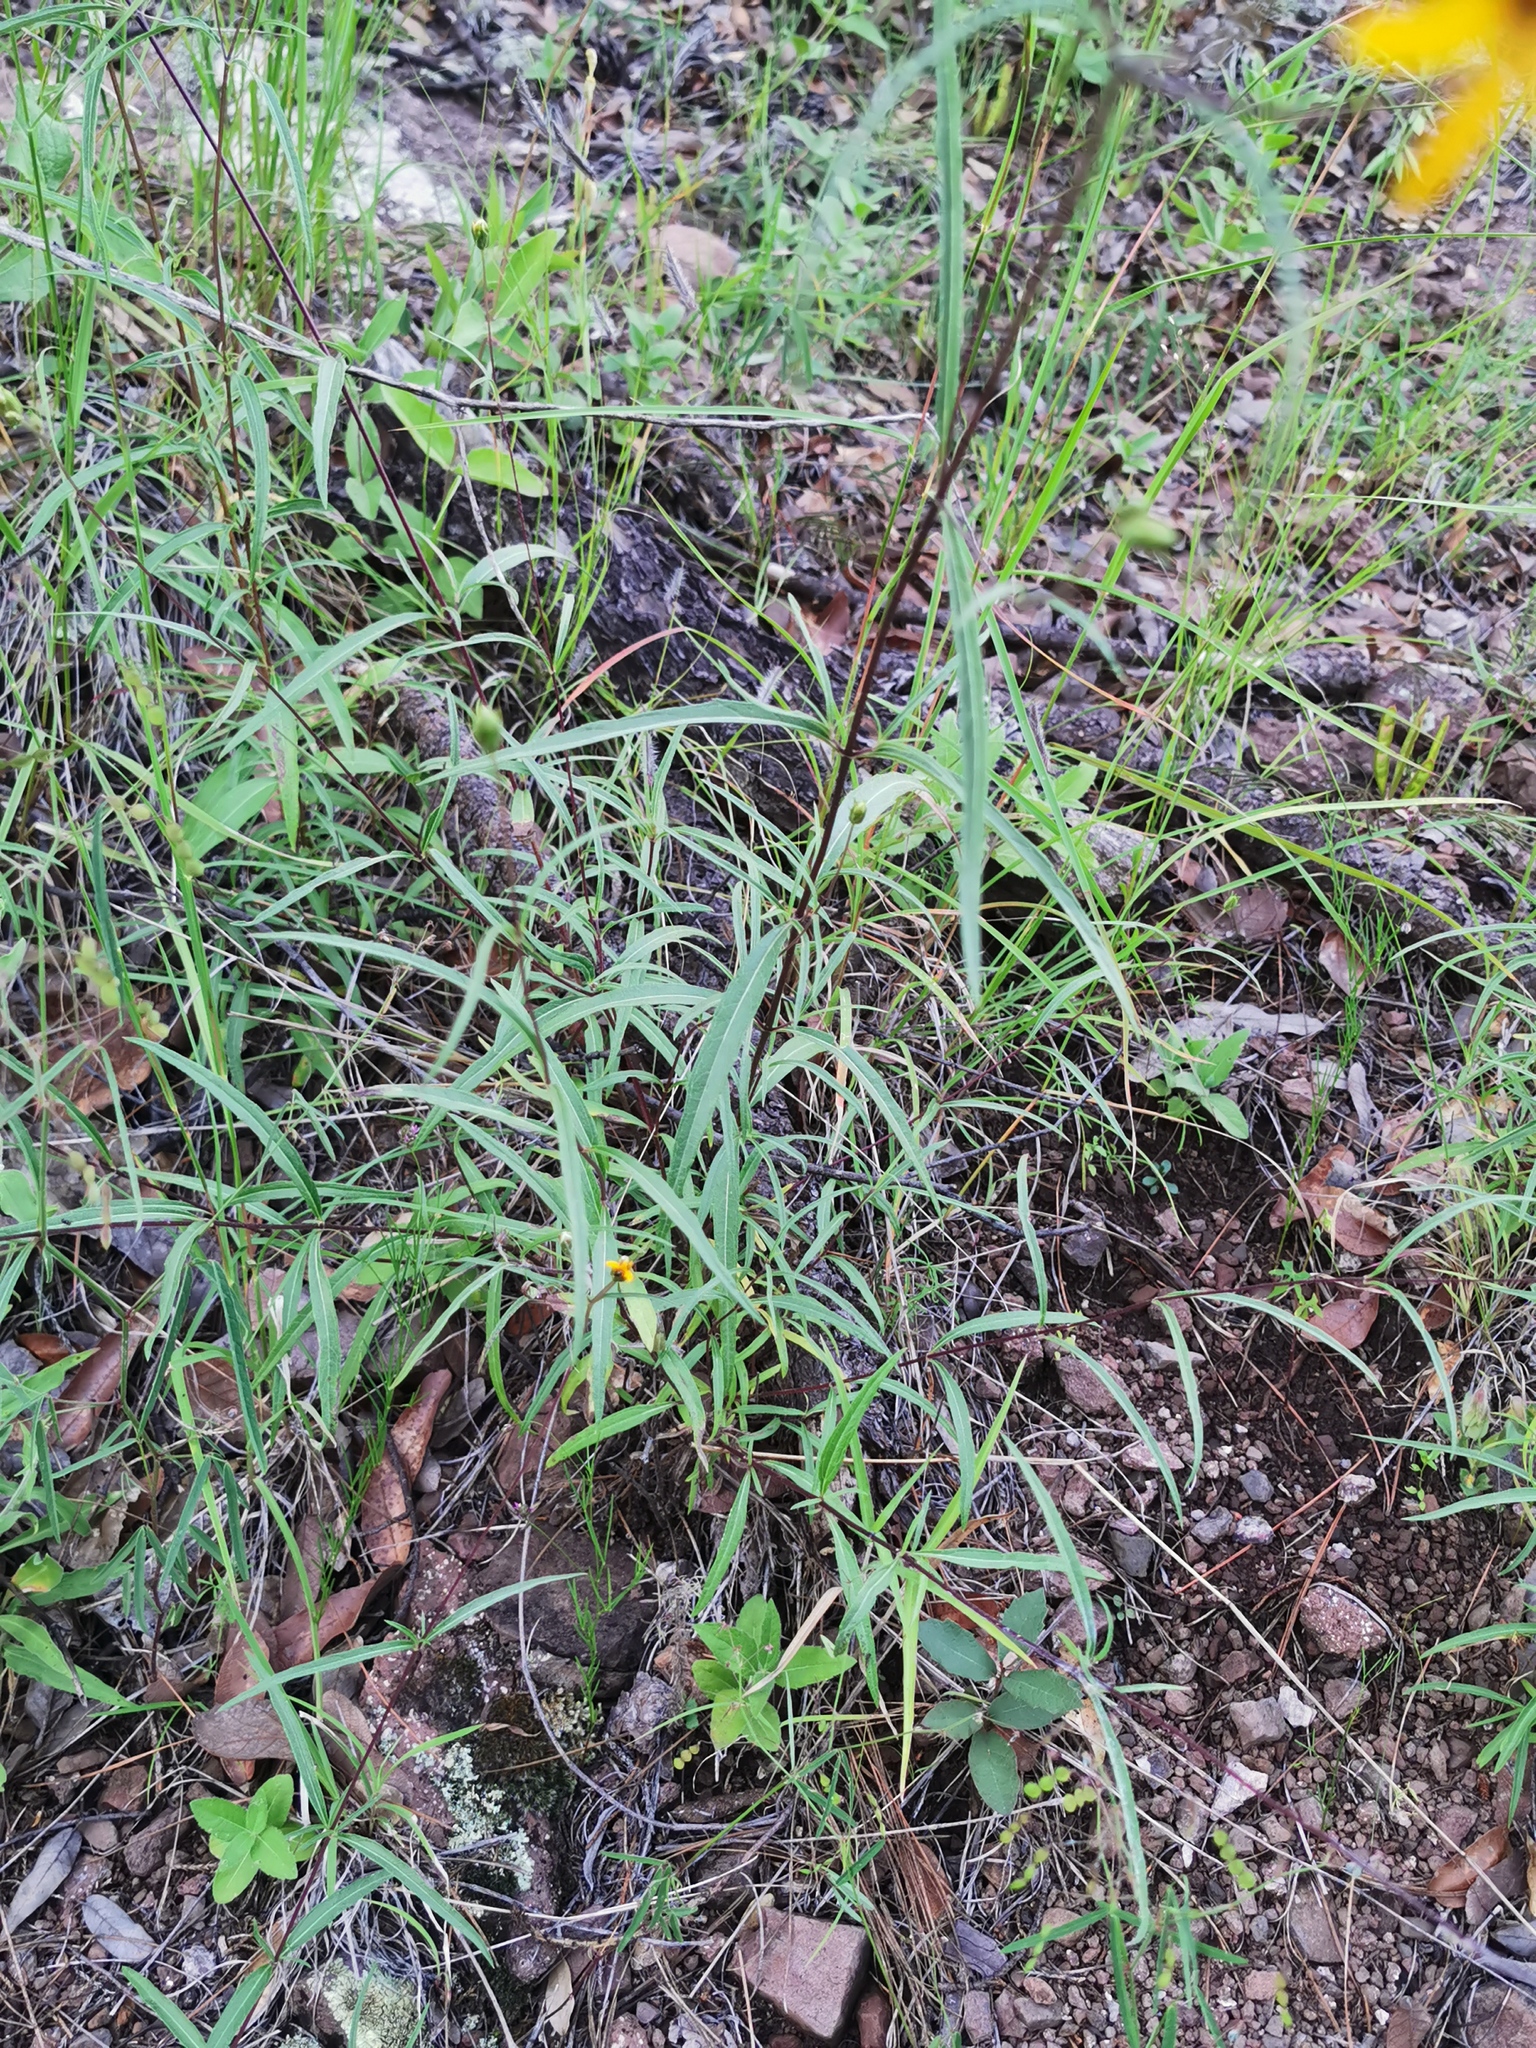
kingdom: Plantae
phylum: Tracheophyta
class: Magnoliopsida
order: Asterales
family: Asteraceae
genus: Wedelia
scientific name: Wedelia greenmanii
